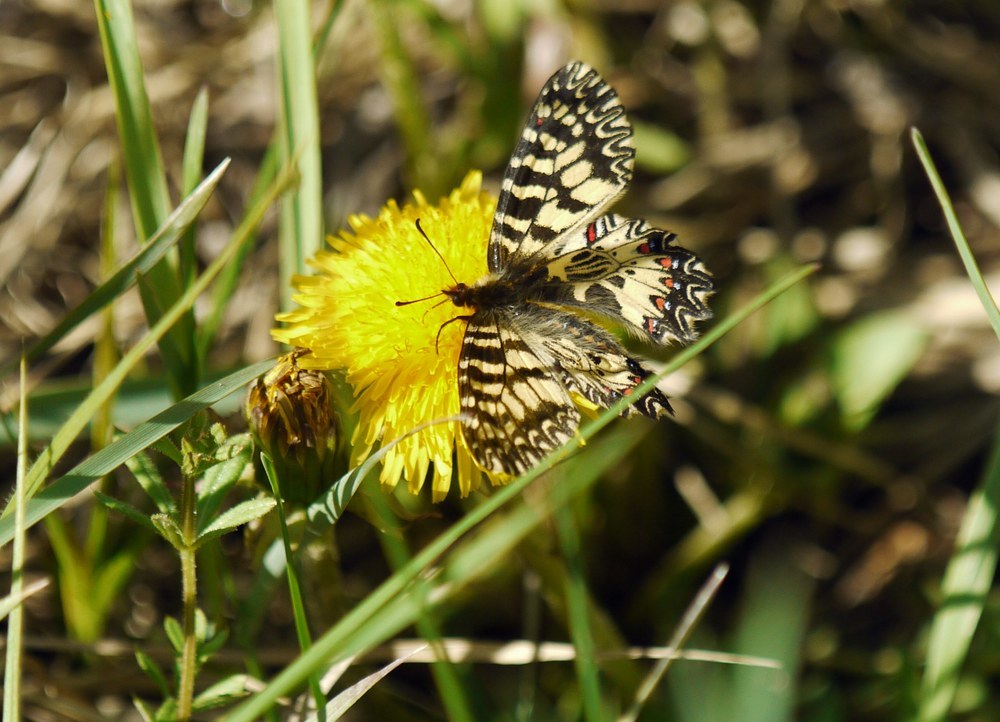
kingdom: Animalia
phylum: Arthropoda
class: Insecta
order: Lepidoptera
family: Papilionidae
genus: Zerynthia
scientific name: Zerynthia polyxena
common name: Southern festoon
